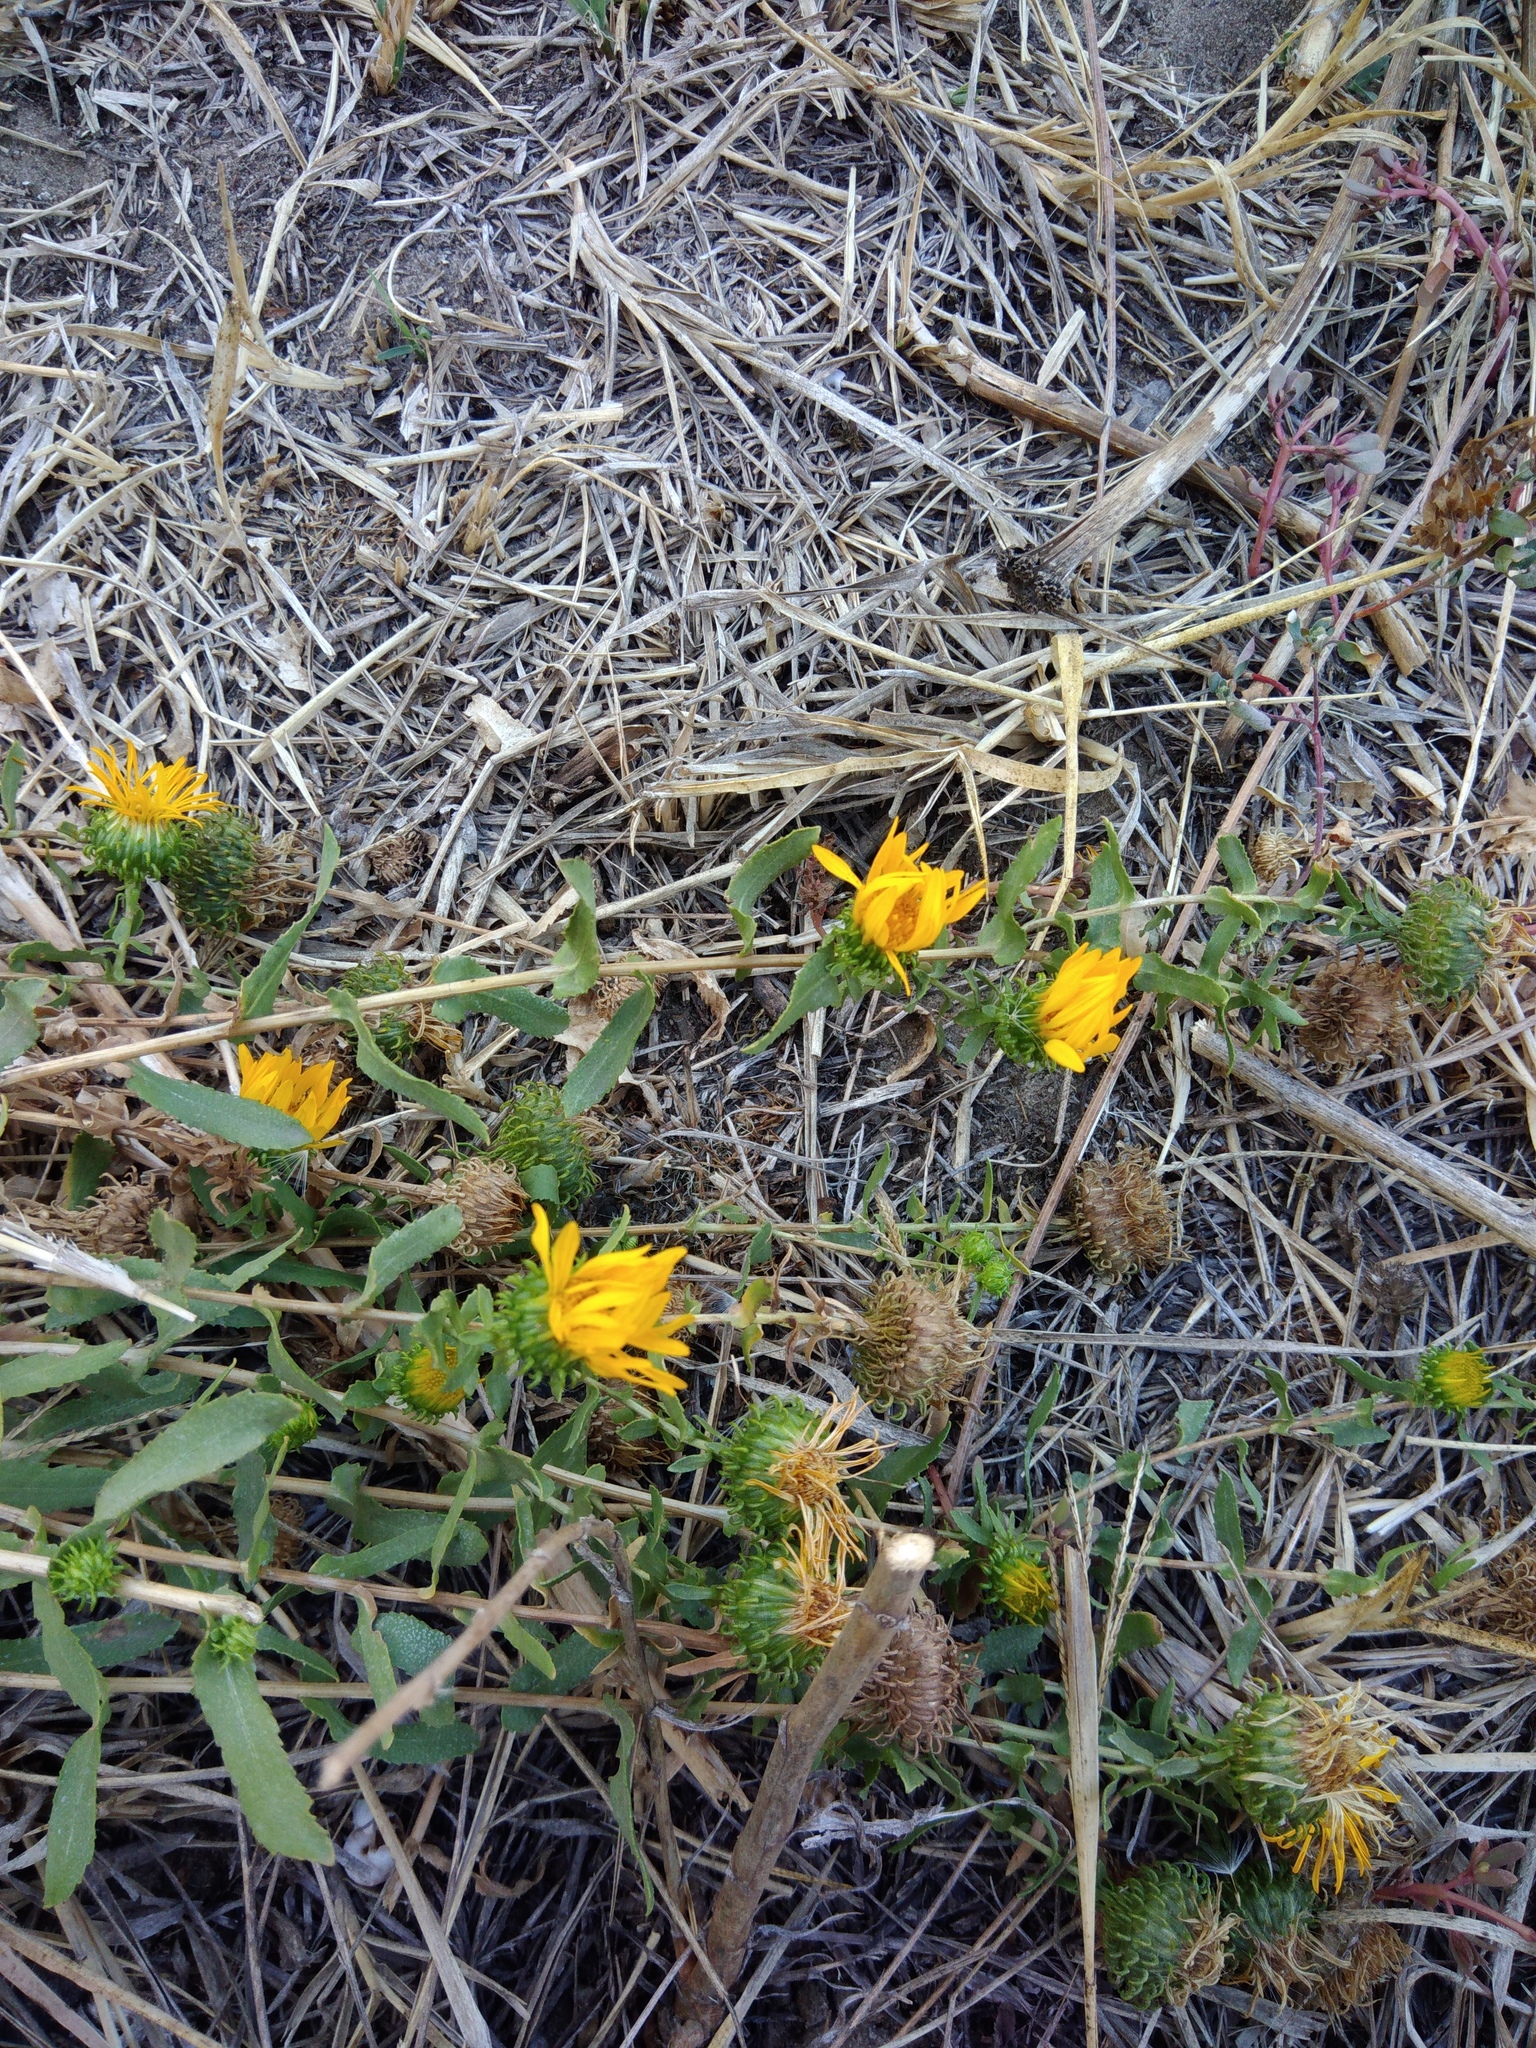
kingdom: Plantae
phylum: Tracheophyta
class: Magnoliopsida
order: Asterales
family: Asteraceae
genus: Grindelia
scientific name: Grindelia squarrosa
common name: Curly-cup gumweed
